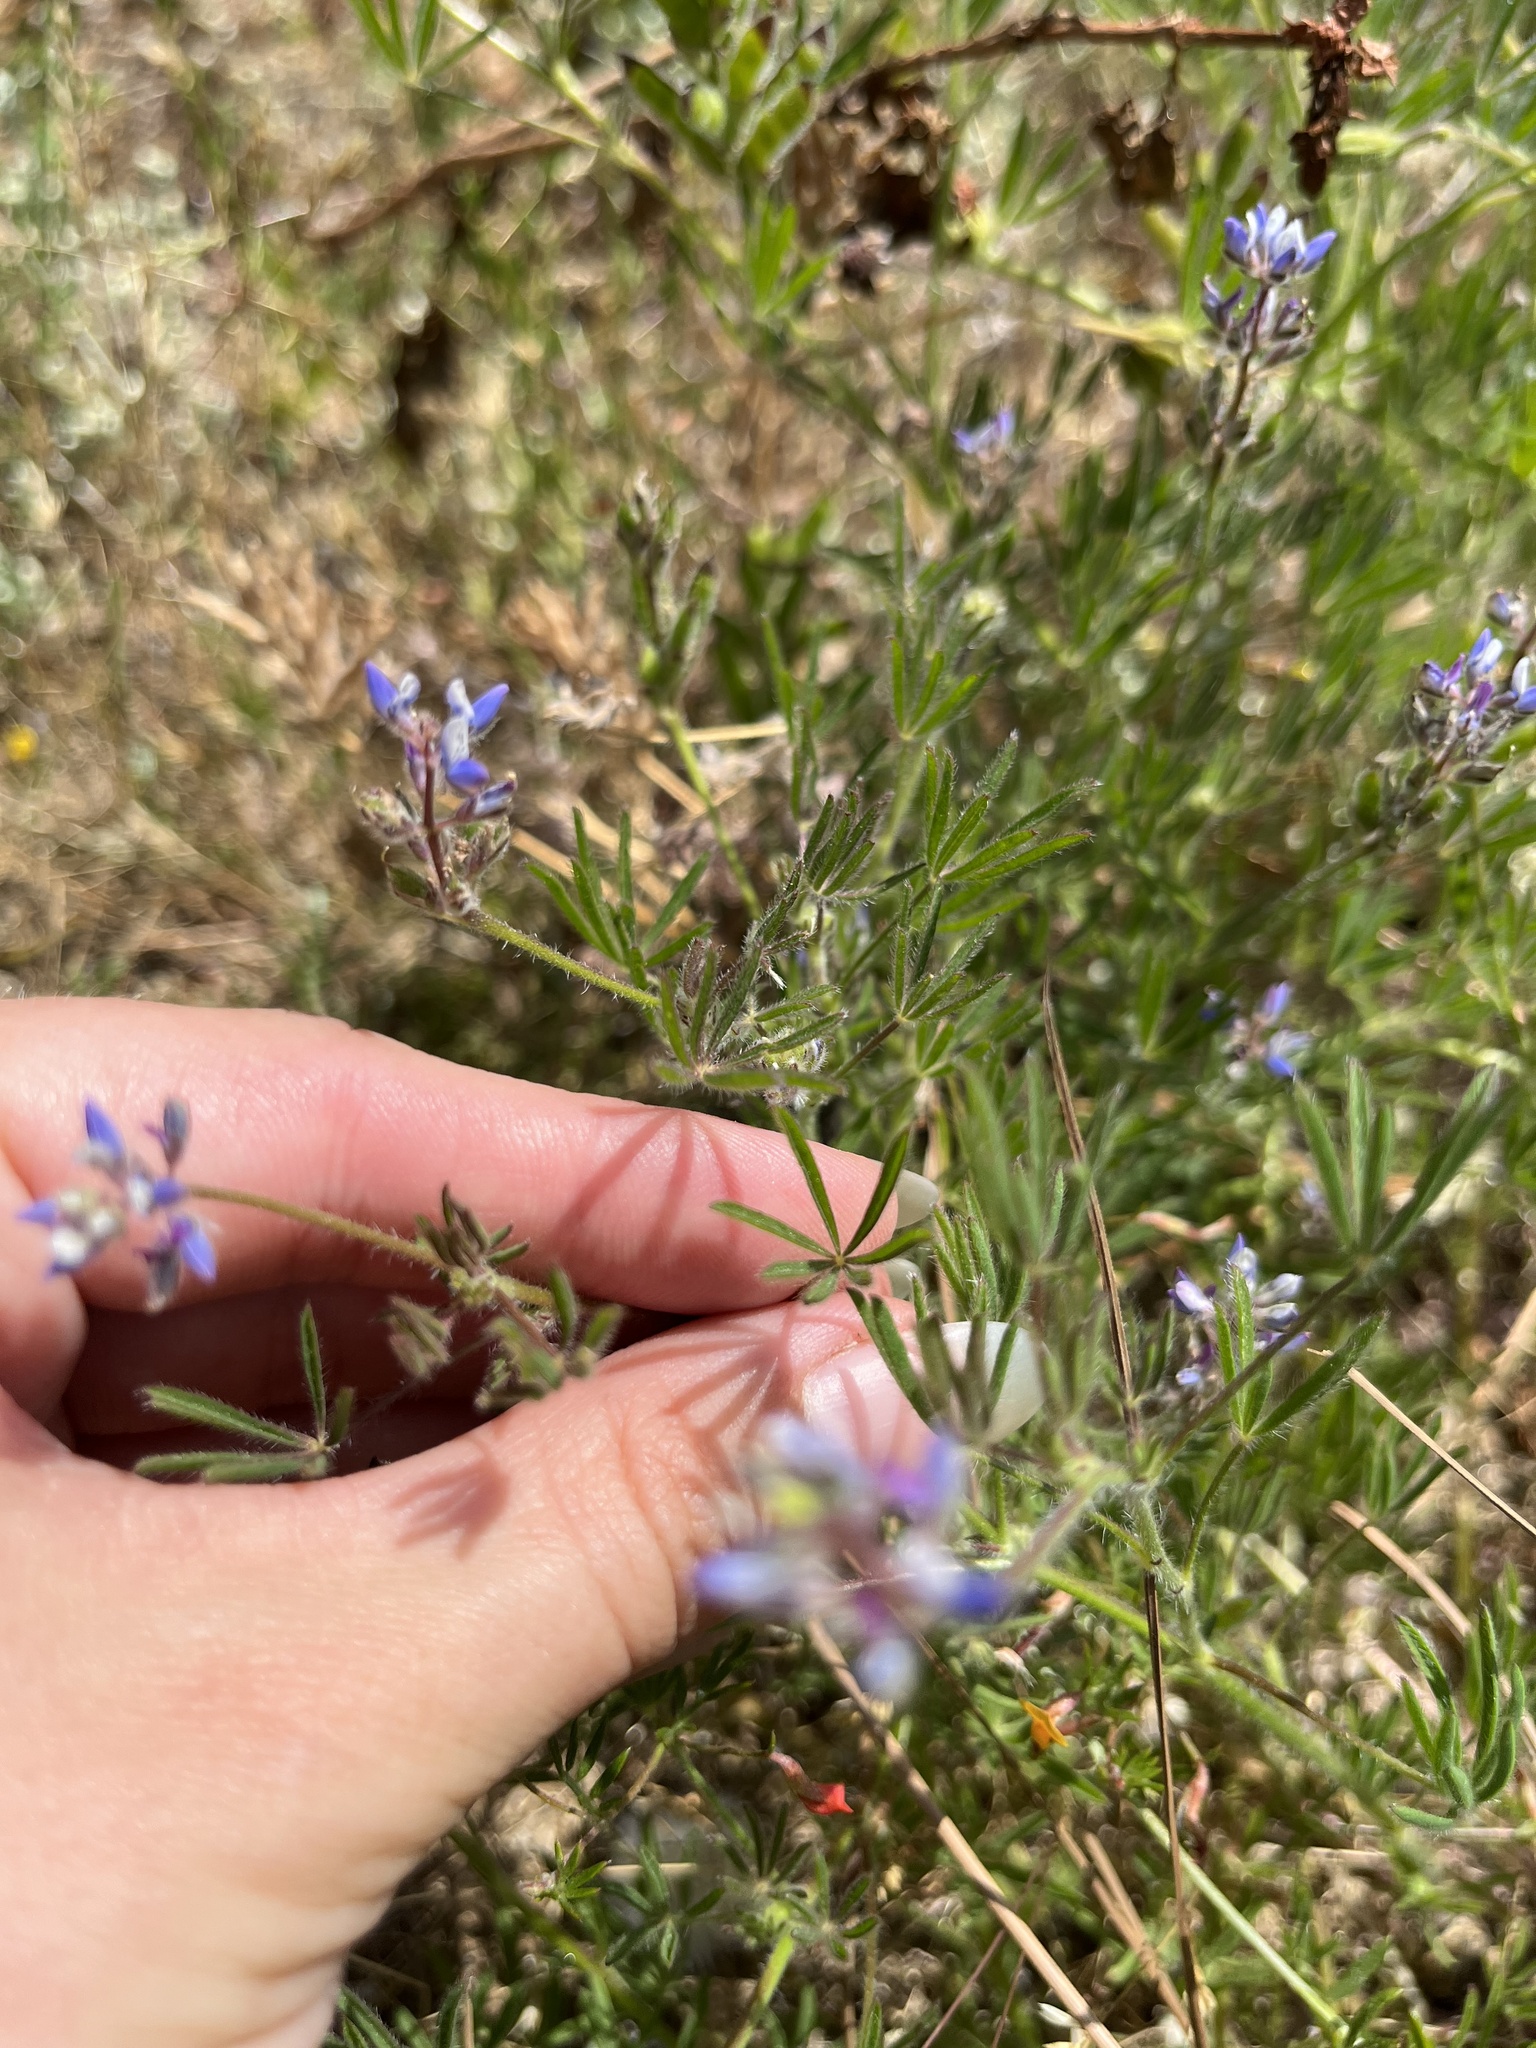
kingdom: Plantae
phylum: Tracheophyta
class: Magnoliopsida
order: Fabales
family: Fabaceae
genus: Lupinus
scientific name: Lupinus bicolor
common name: Miniature lupine
